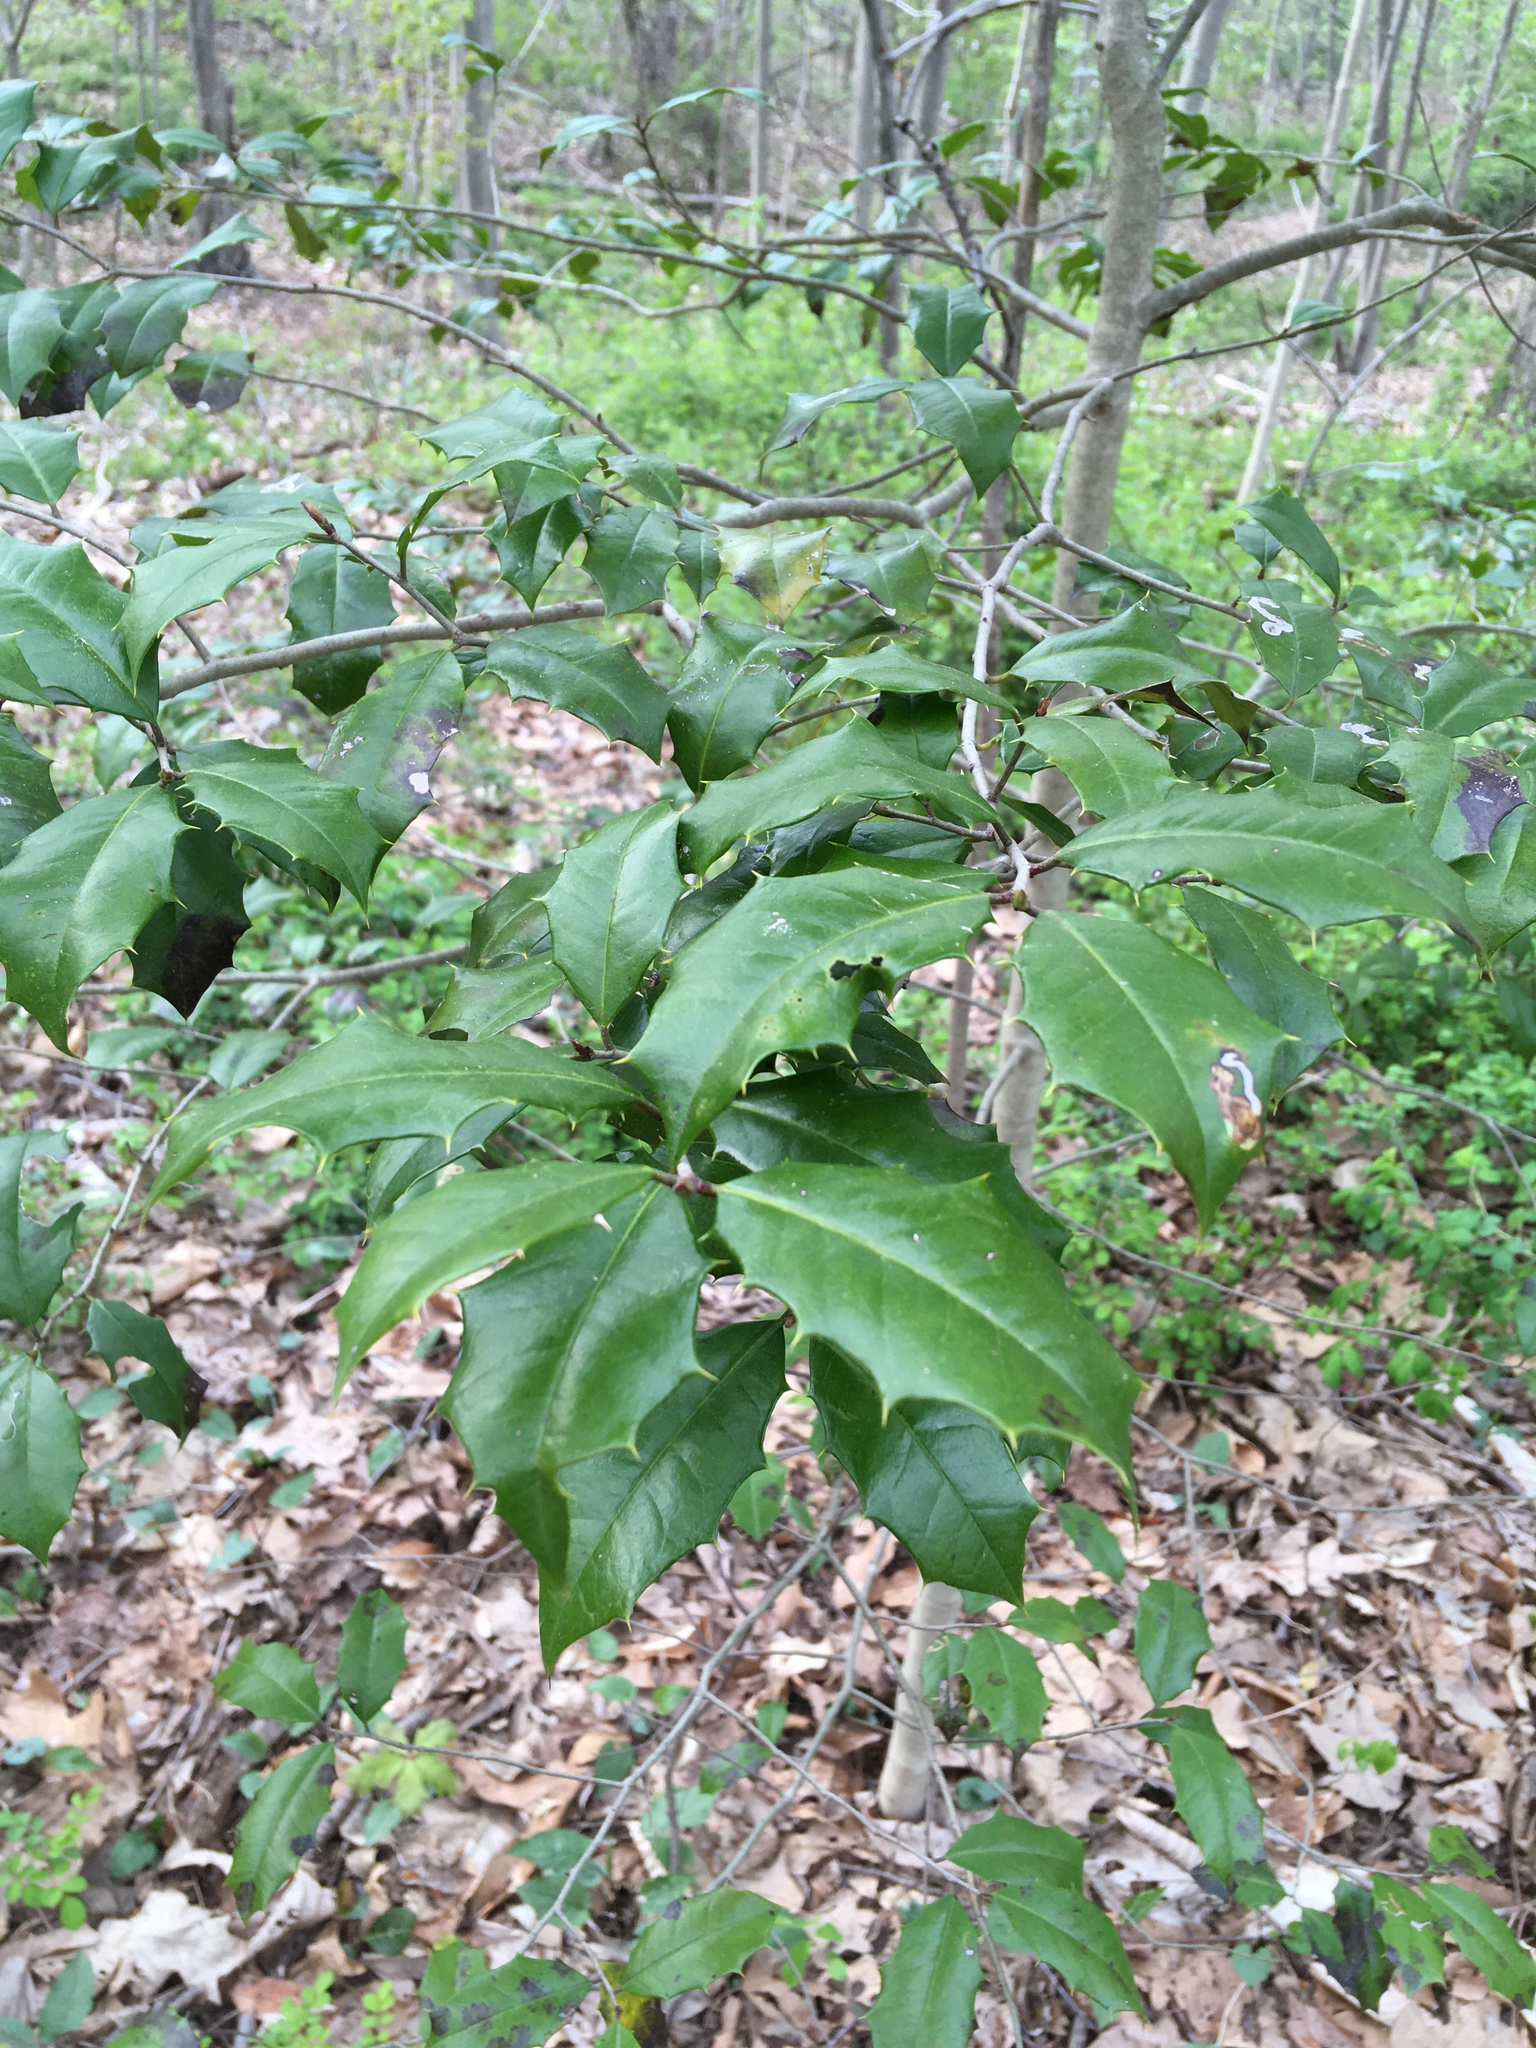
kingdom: Plantae
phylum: Tracheophyta
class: Magnoliopsida
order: Aquifoliales
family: Aquifoliaceae
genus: Ilex
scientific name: Ilex opaca
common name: American holly
